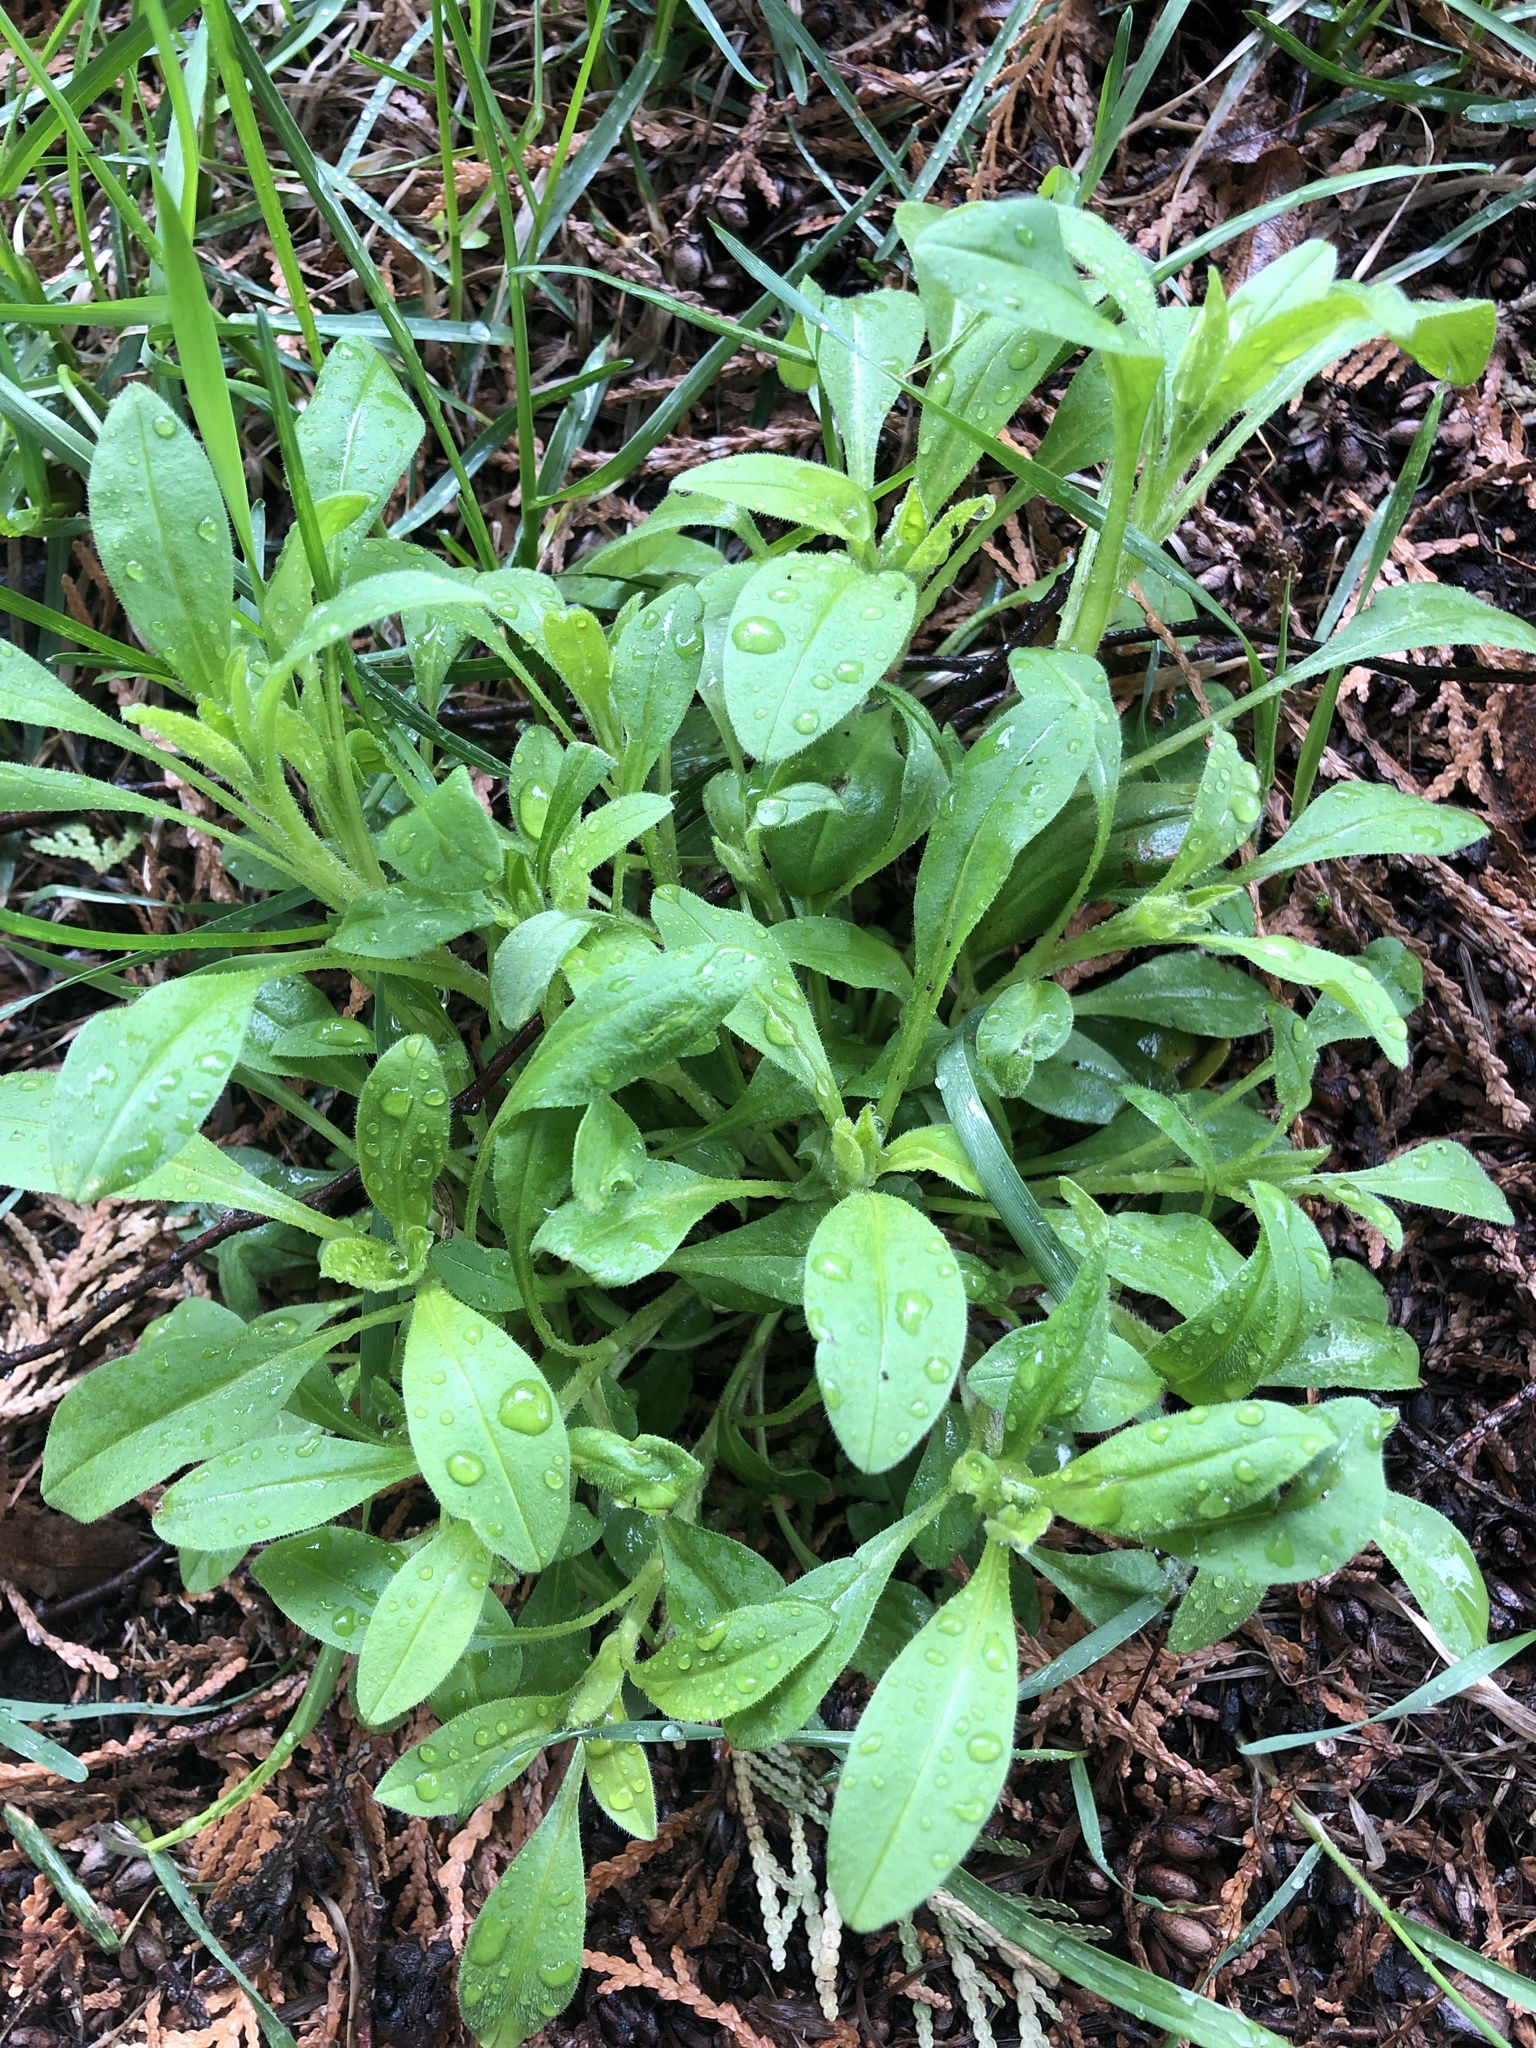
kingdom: Plantae
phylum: Tracheophyta
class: Magnoliopsida
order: Boraginales
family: Boraginaceae
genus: Myosotis
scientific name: Myosotis sparsiflora
